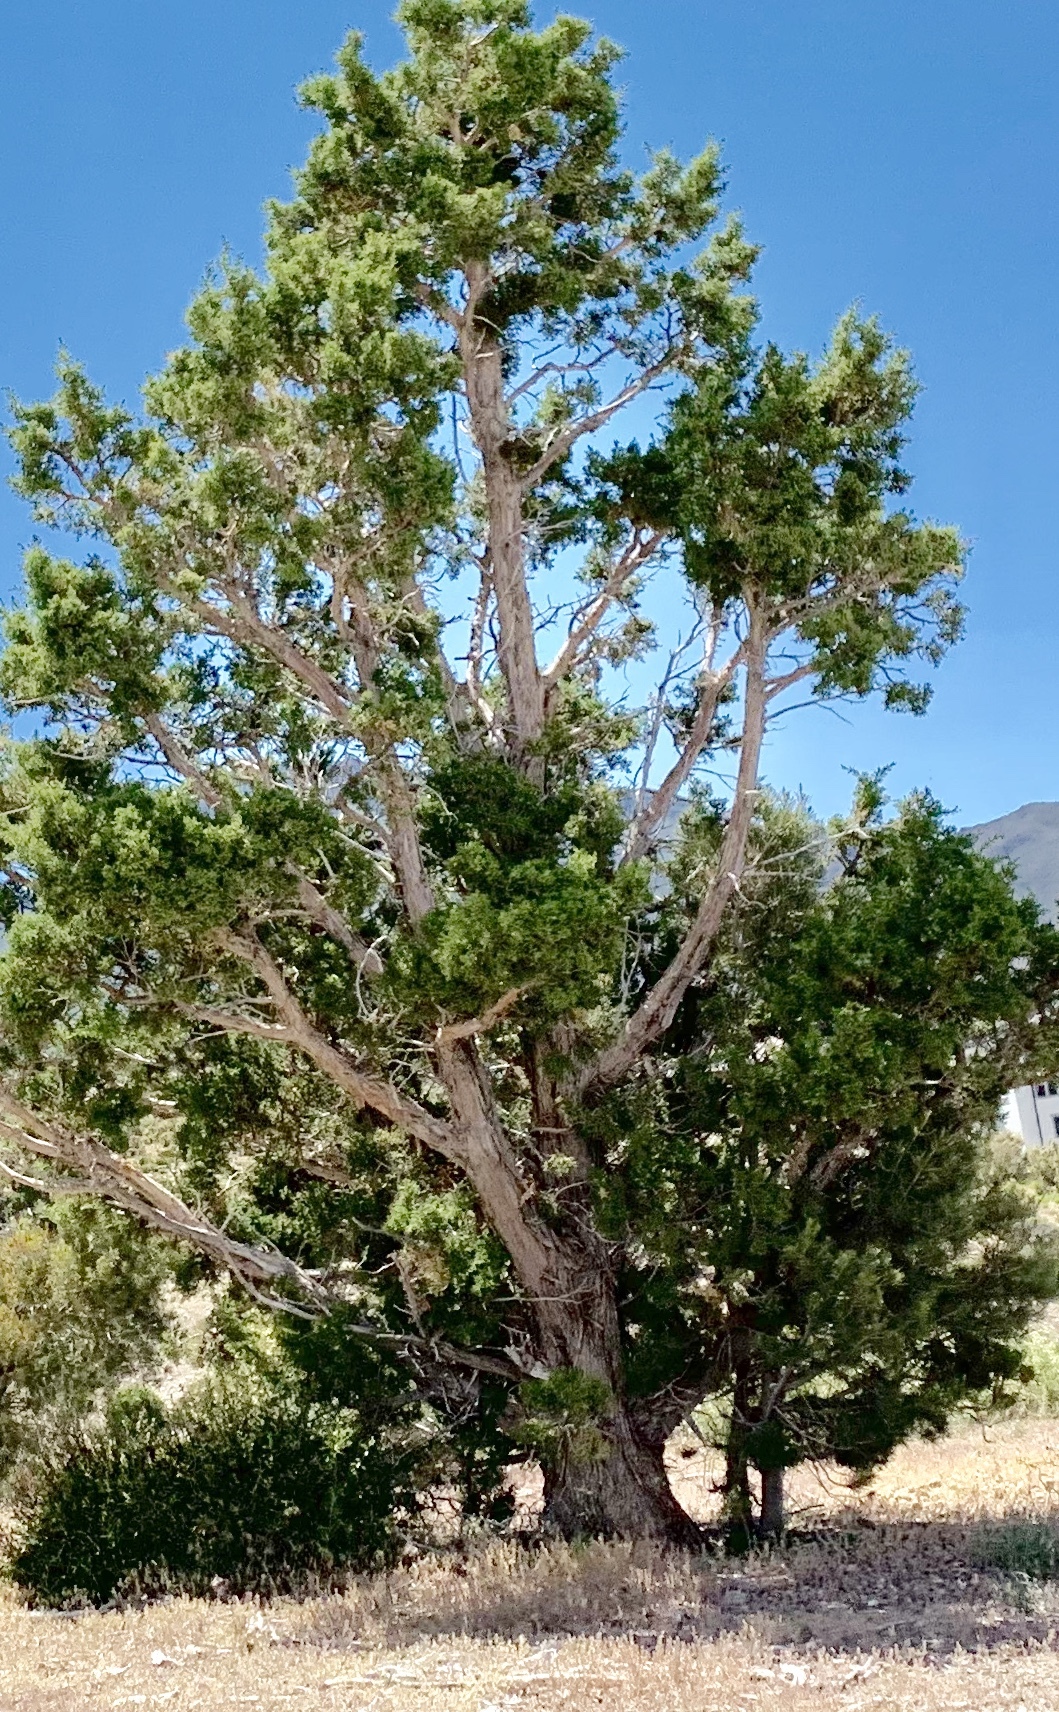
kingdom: Plantae
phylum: Tracheophyta
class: Pinopsida
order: Pinales
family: Cupressaceae
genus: Juniperus
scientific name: Juniperus osteosperma
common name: Utah juniper
